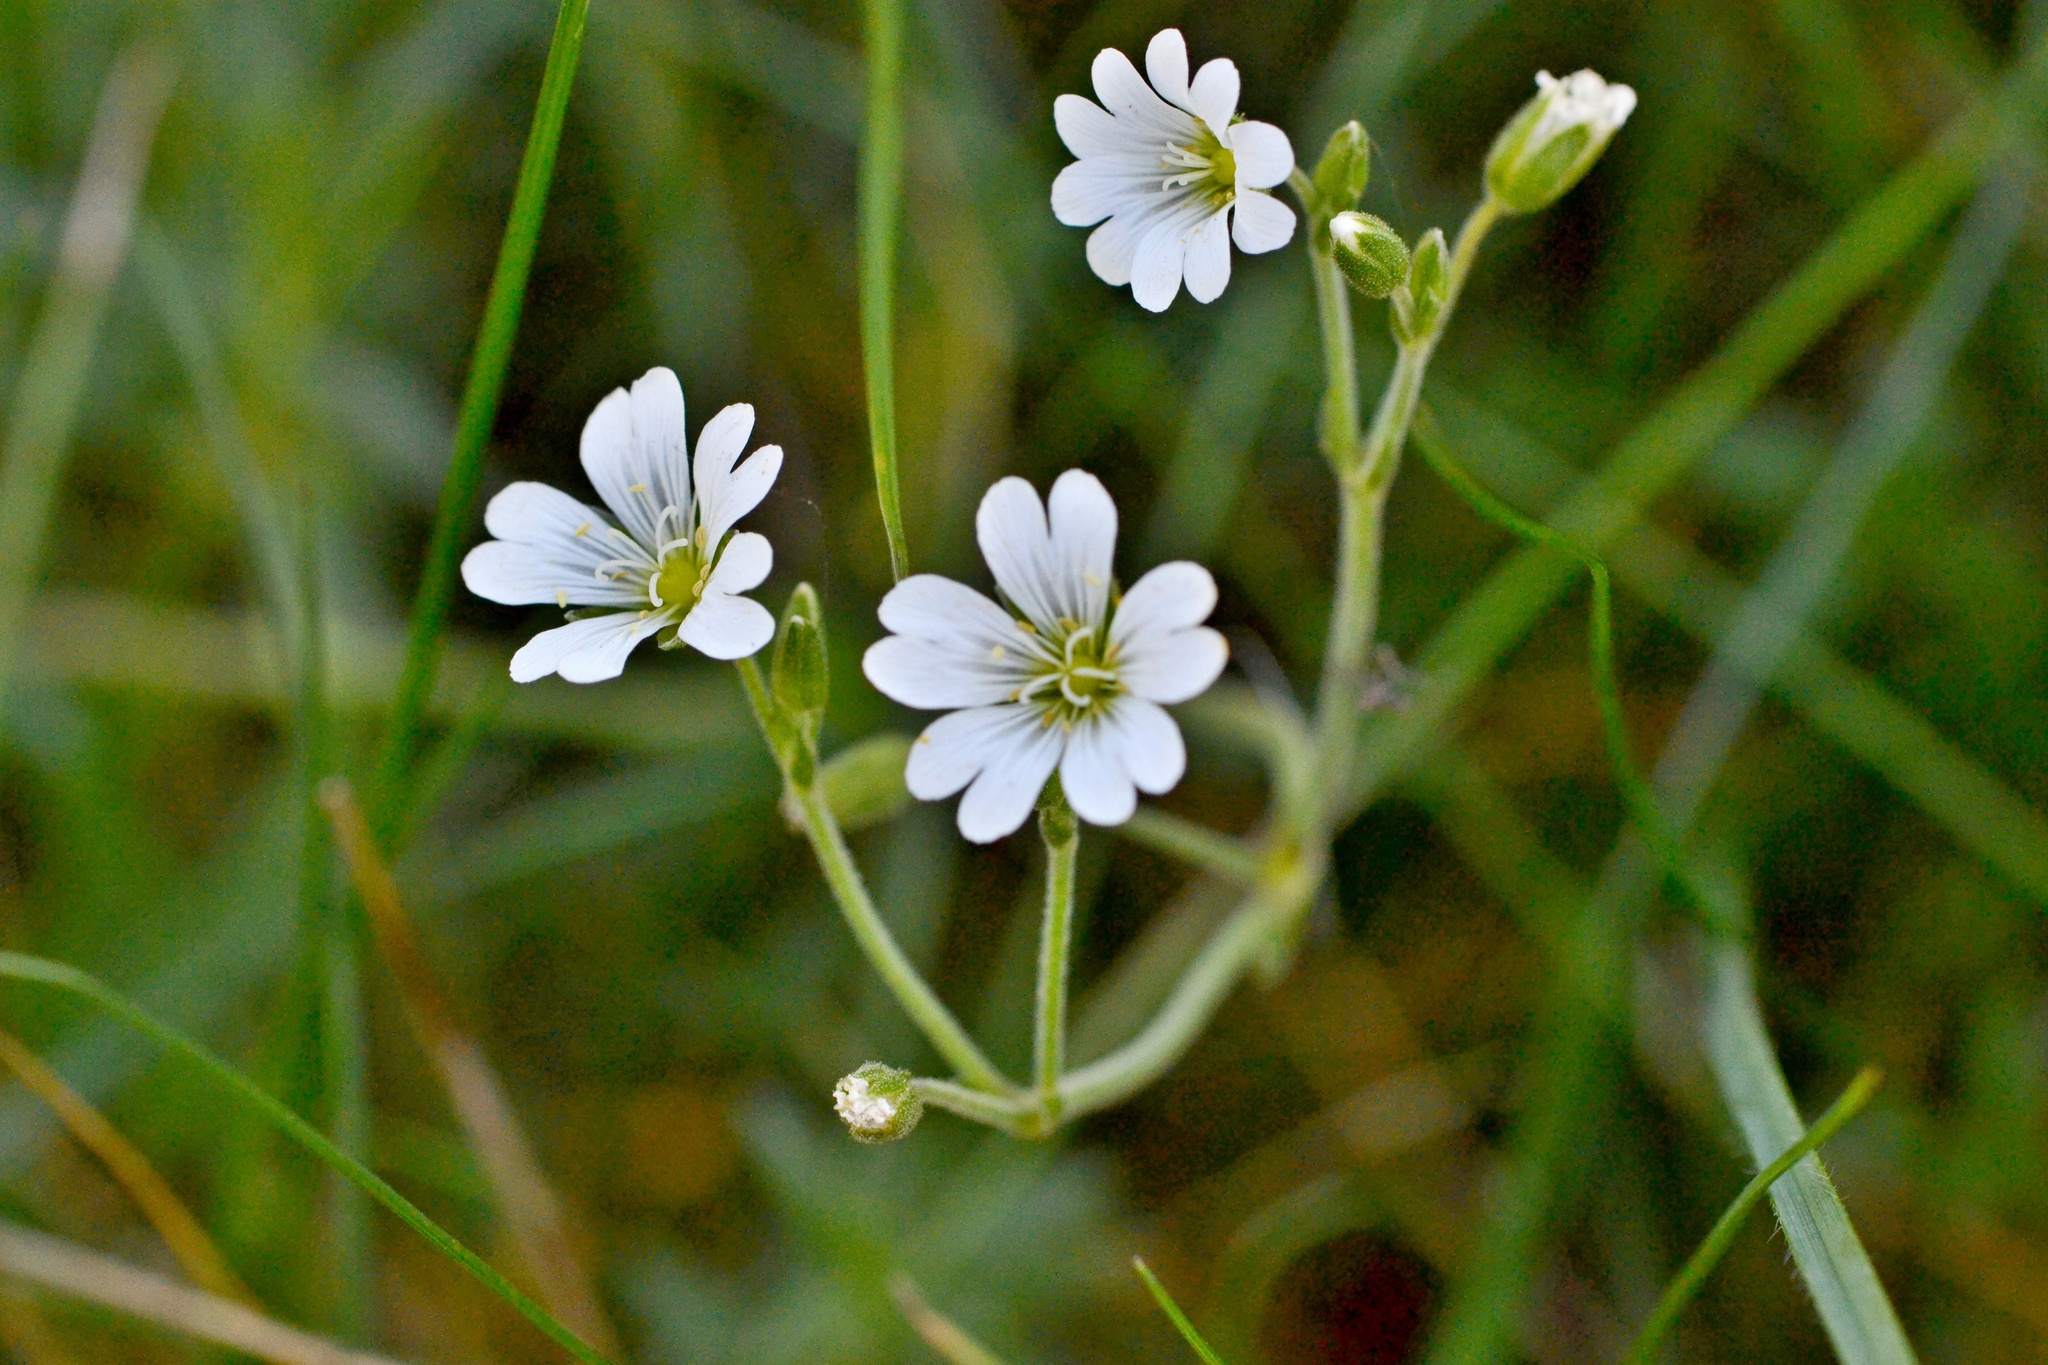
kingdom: Plantae
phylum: Tracheophyta
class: Magnoliopsida
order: Caryophyllales
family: Caryophyllaceae
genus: Cerastium
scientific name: Cerastium arvense
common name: Field mouse-ear
